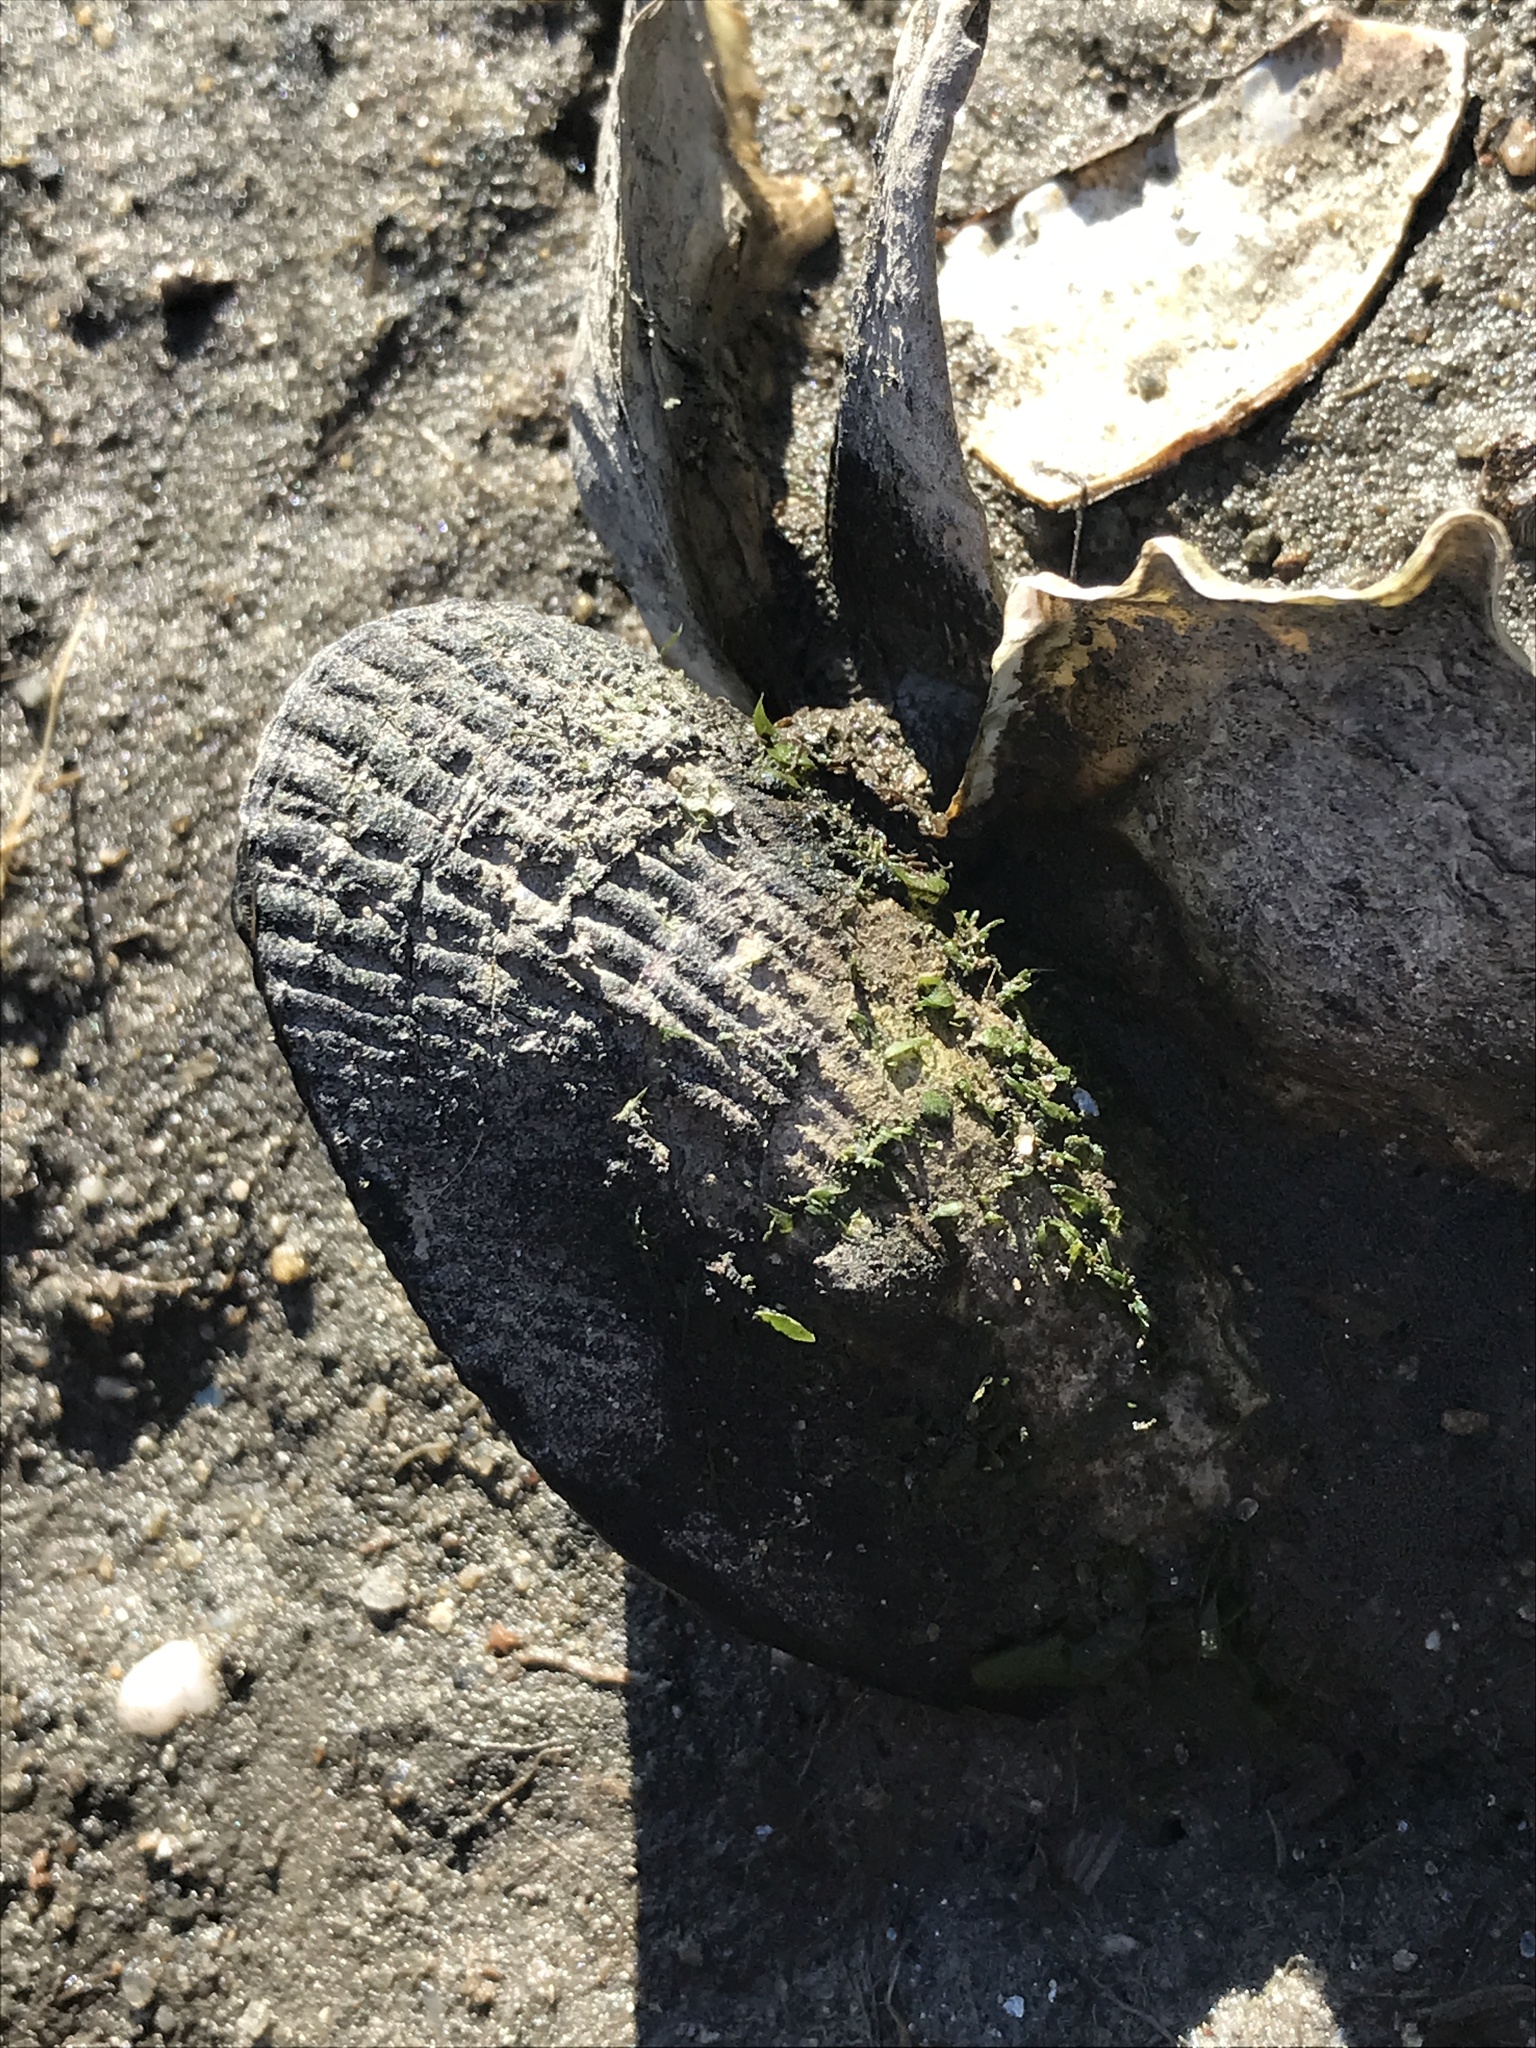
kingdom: Animalia
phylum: Mollusca
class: Bivalvia
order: Mytilida
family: Mytilidae
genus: Geukensia
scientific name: Geukensia demissa
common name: Ribbed mussel
